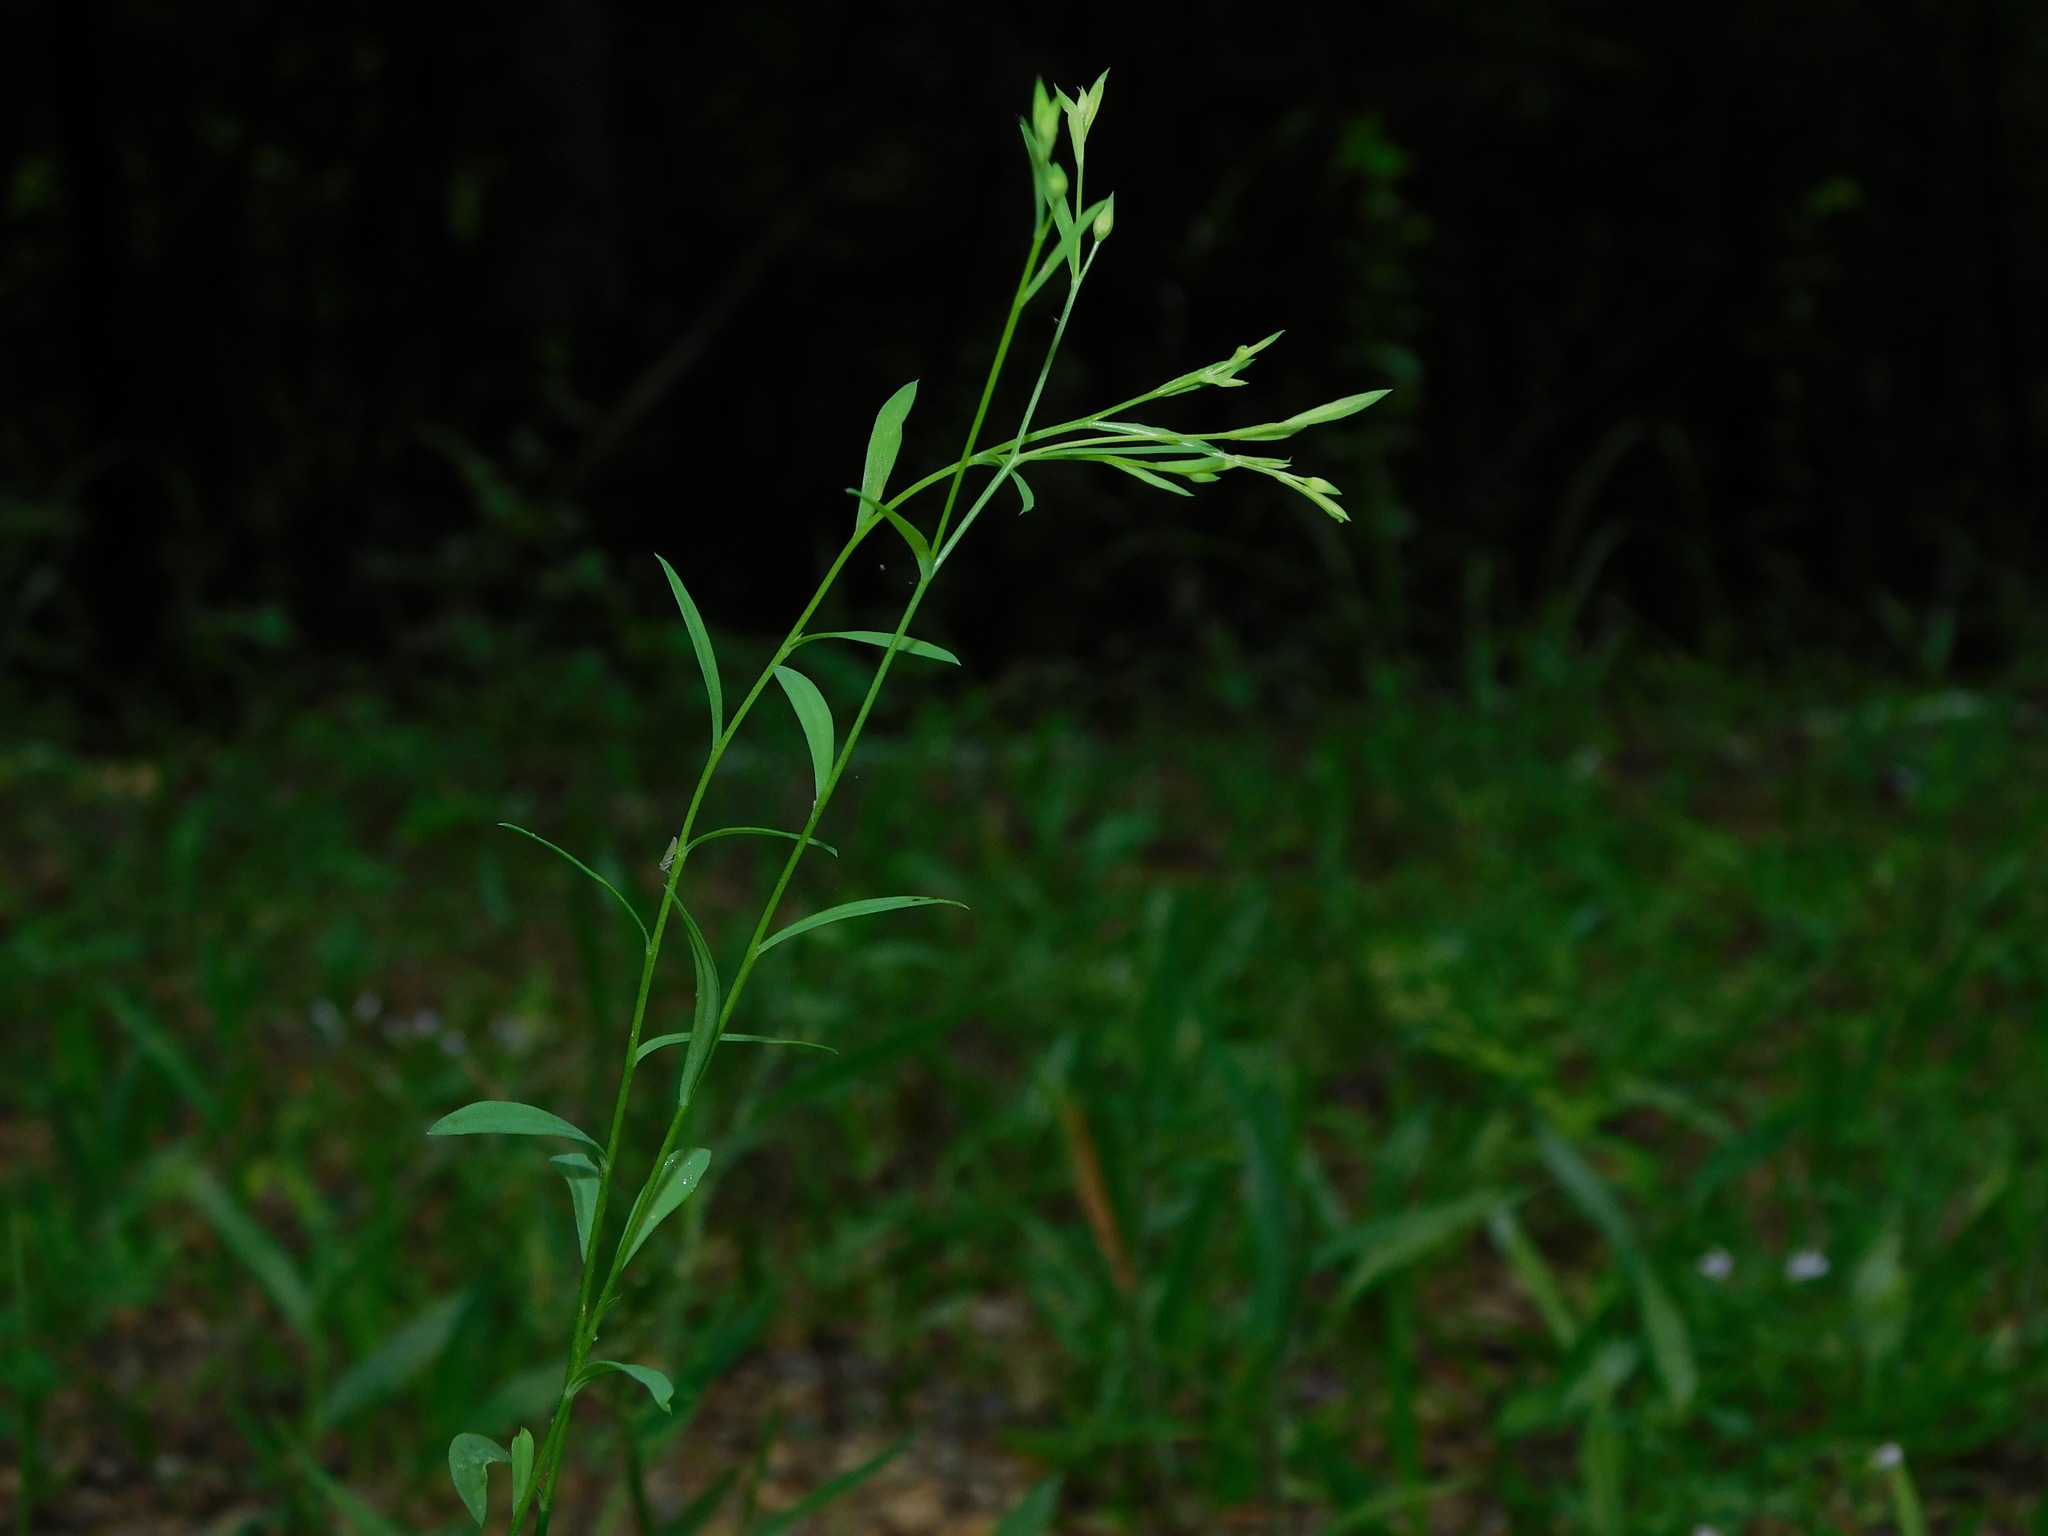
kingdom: Plantae
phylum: Tracheophyta
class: Magnoliopsida
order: Malpighiales
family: Linaceae
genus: Linum
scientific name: Linum virginianum
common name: Slender yellow flax
